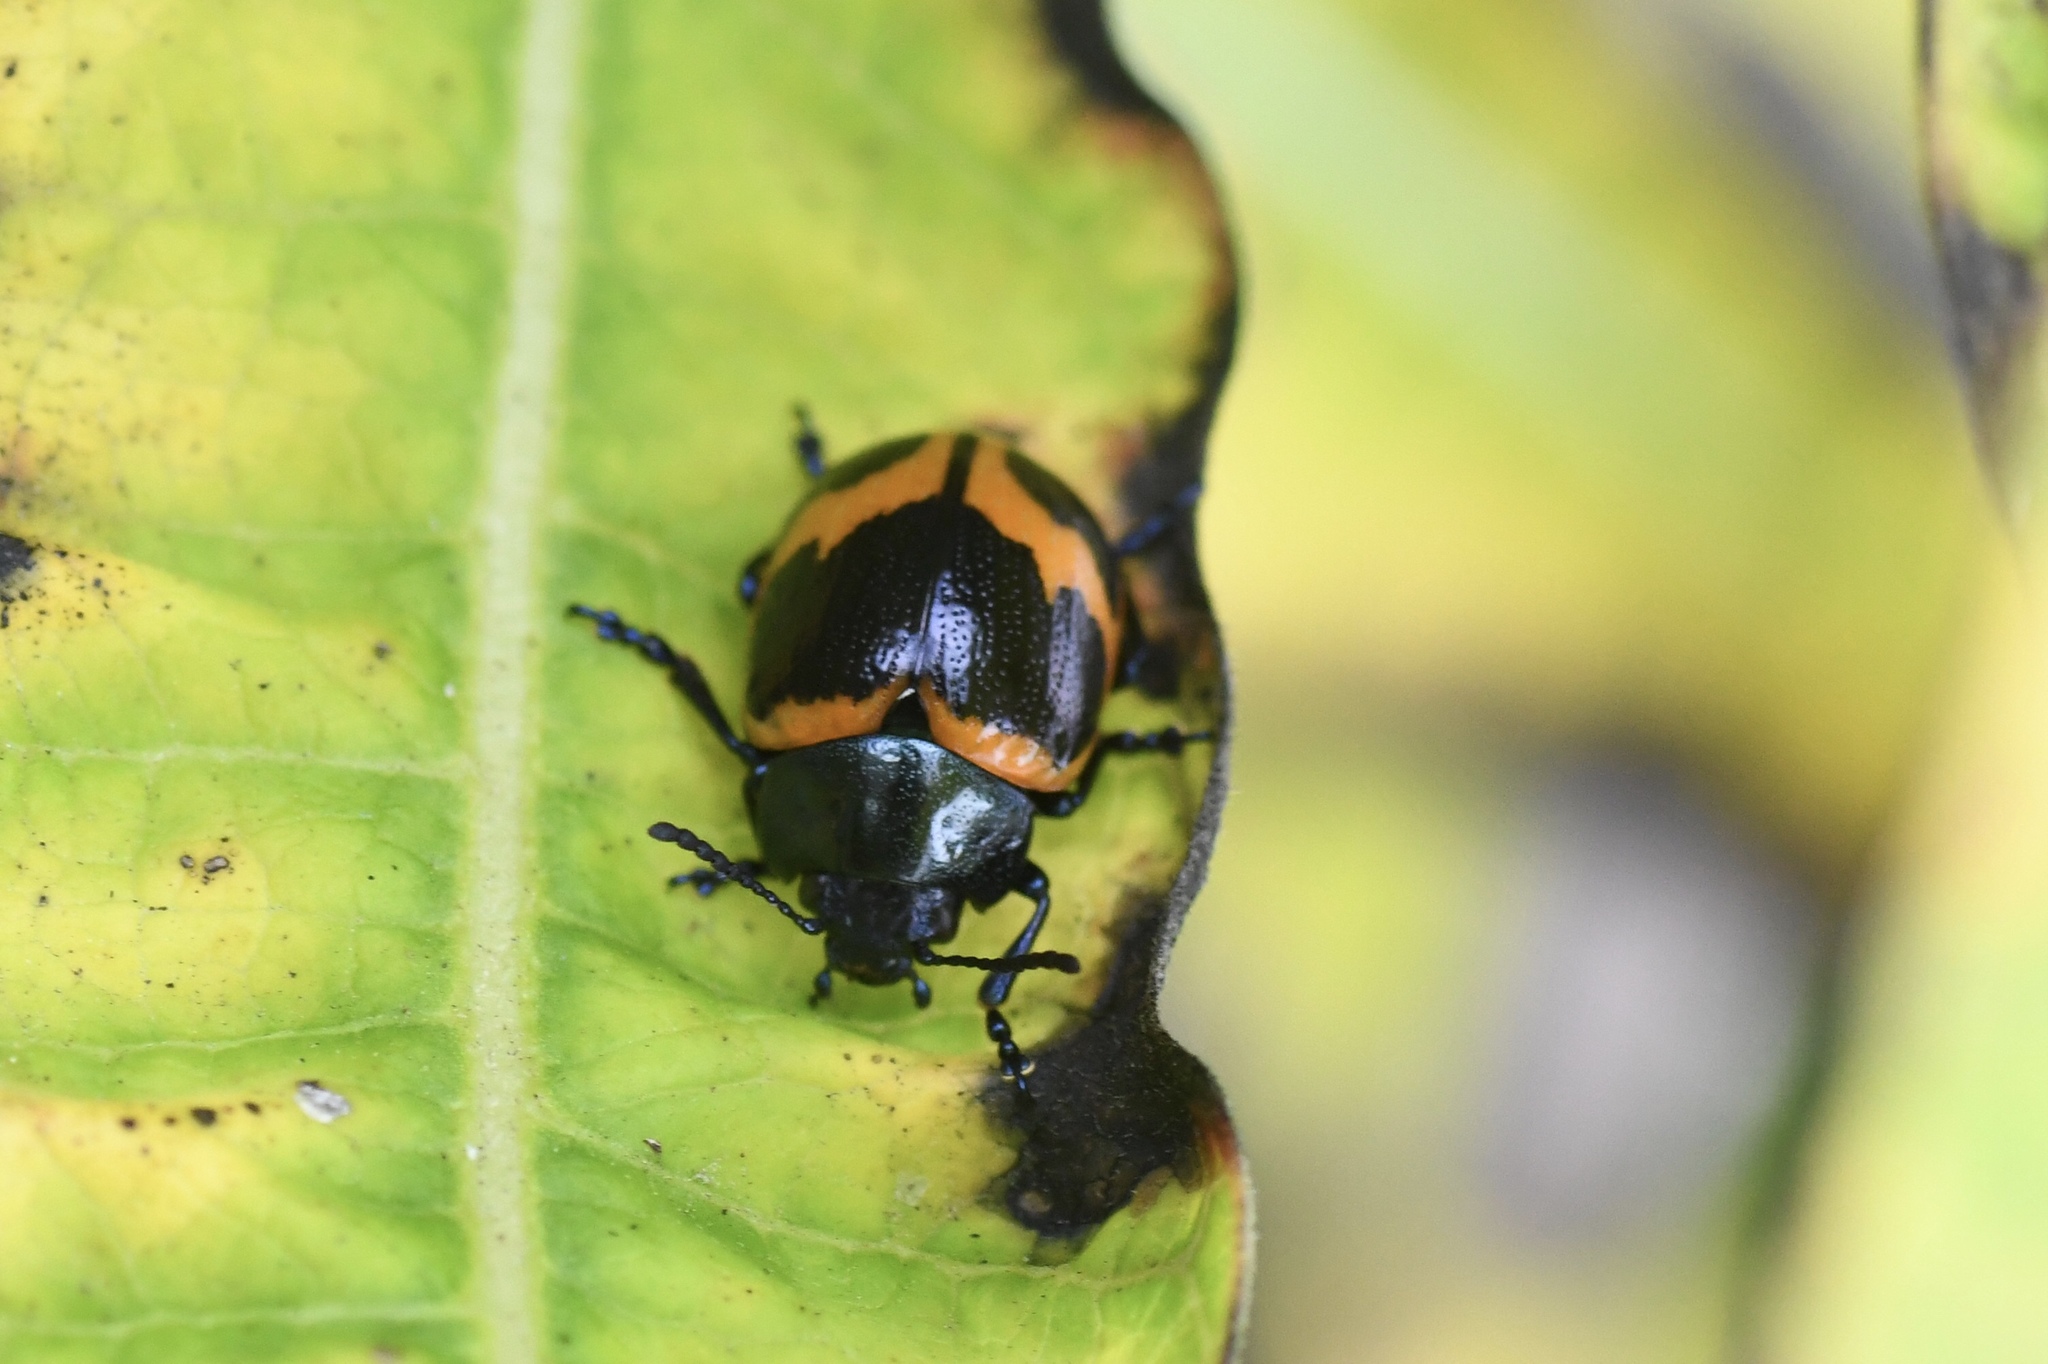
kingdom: Animalia
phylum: Arthropoda
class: Insecta
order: Coleoptera
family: Chrysomelidae
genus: Labidomera
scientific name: Labidomera clivicollis
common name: Swamp milkweed leaf beetle
